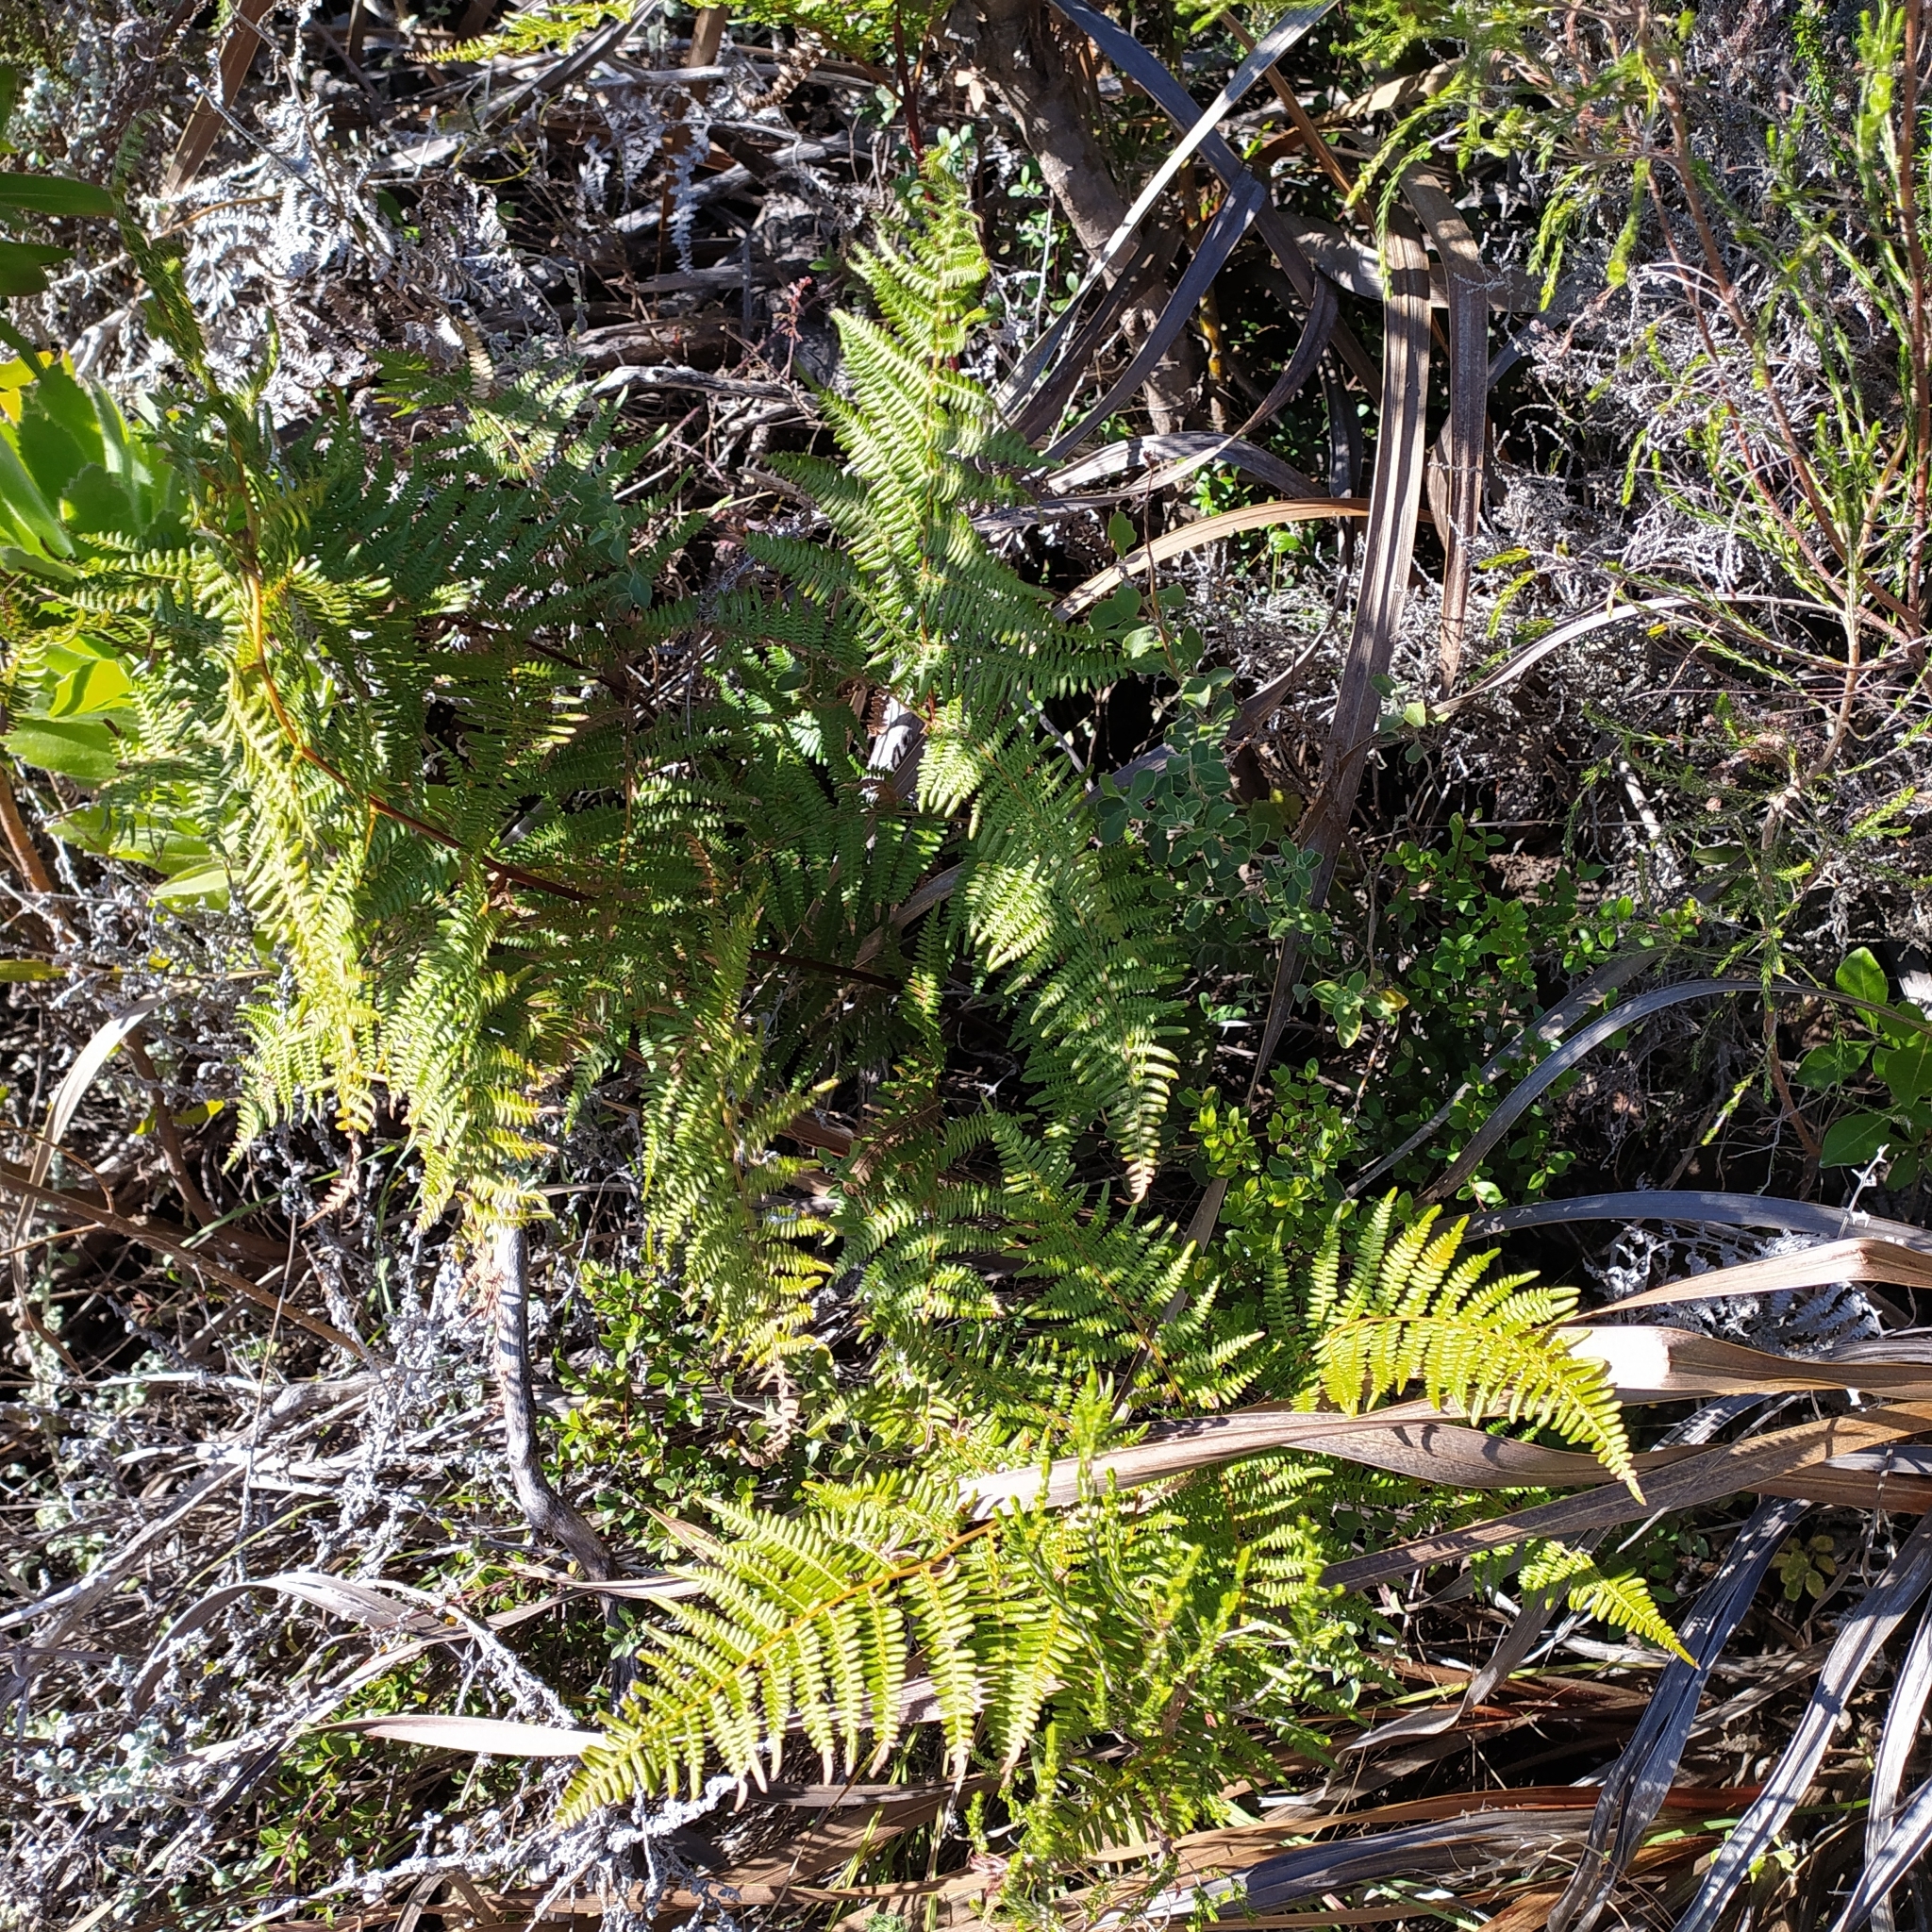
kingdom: Plantae
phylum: Tracheophyta
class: Polypodiopsida
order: Polypodiales
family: Dennstaedtiaceae
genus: Pteridium
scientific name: Pteridium aquilinum
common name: Bracken
